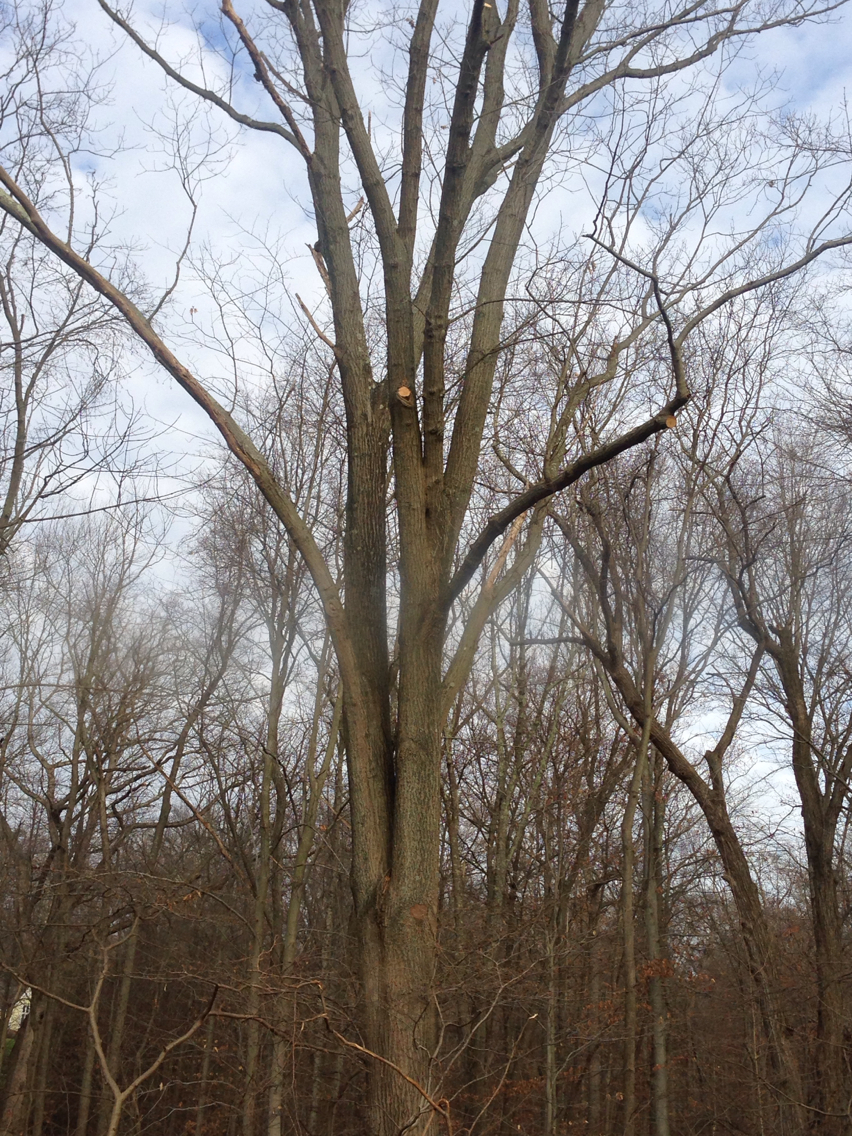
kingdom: Plantae
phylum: Tracheophyta
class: Magnoliopsida
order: Fagales
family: Fagaceae
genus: Quercus
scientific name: Quercus rubra
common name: Red oak
